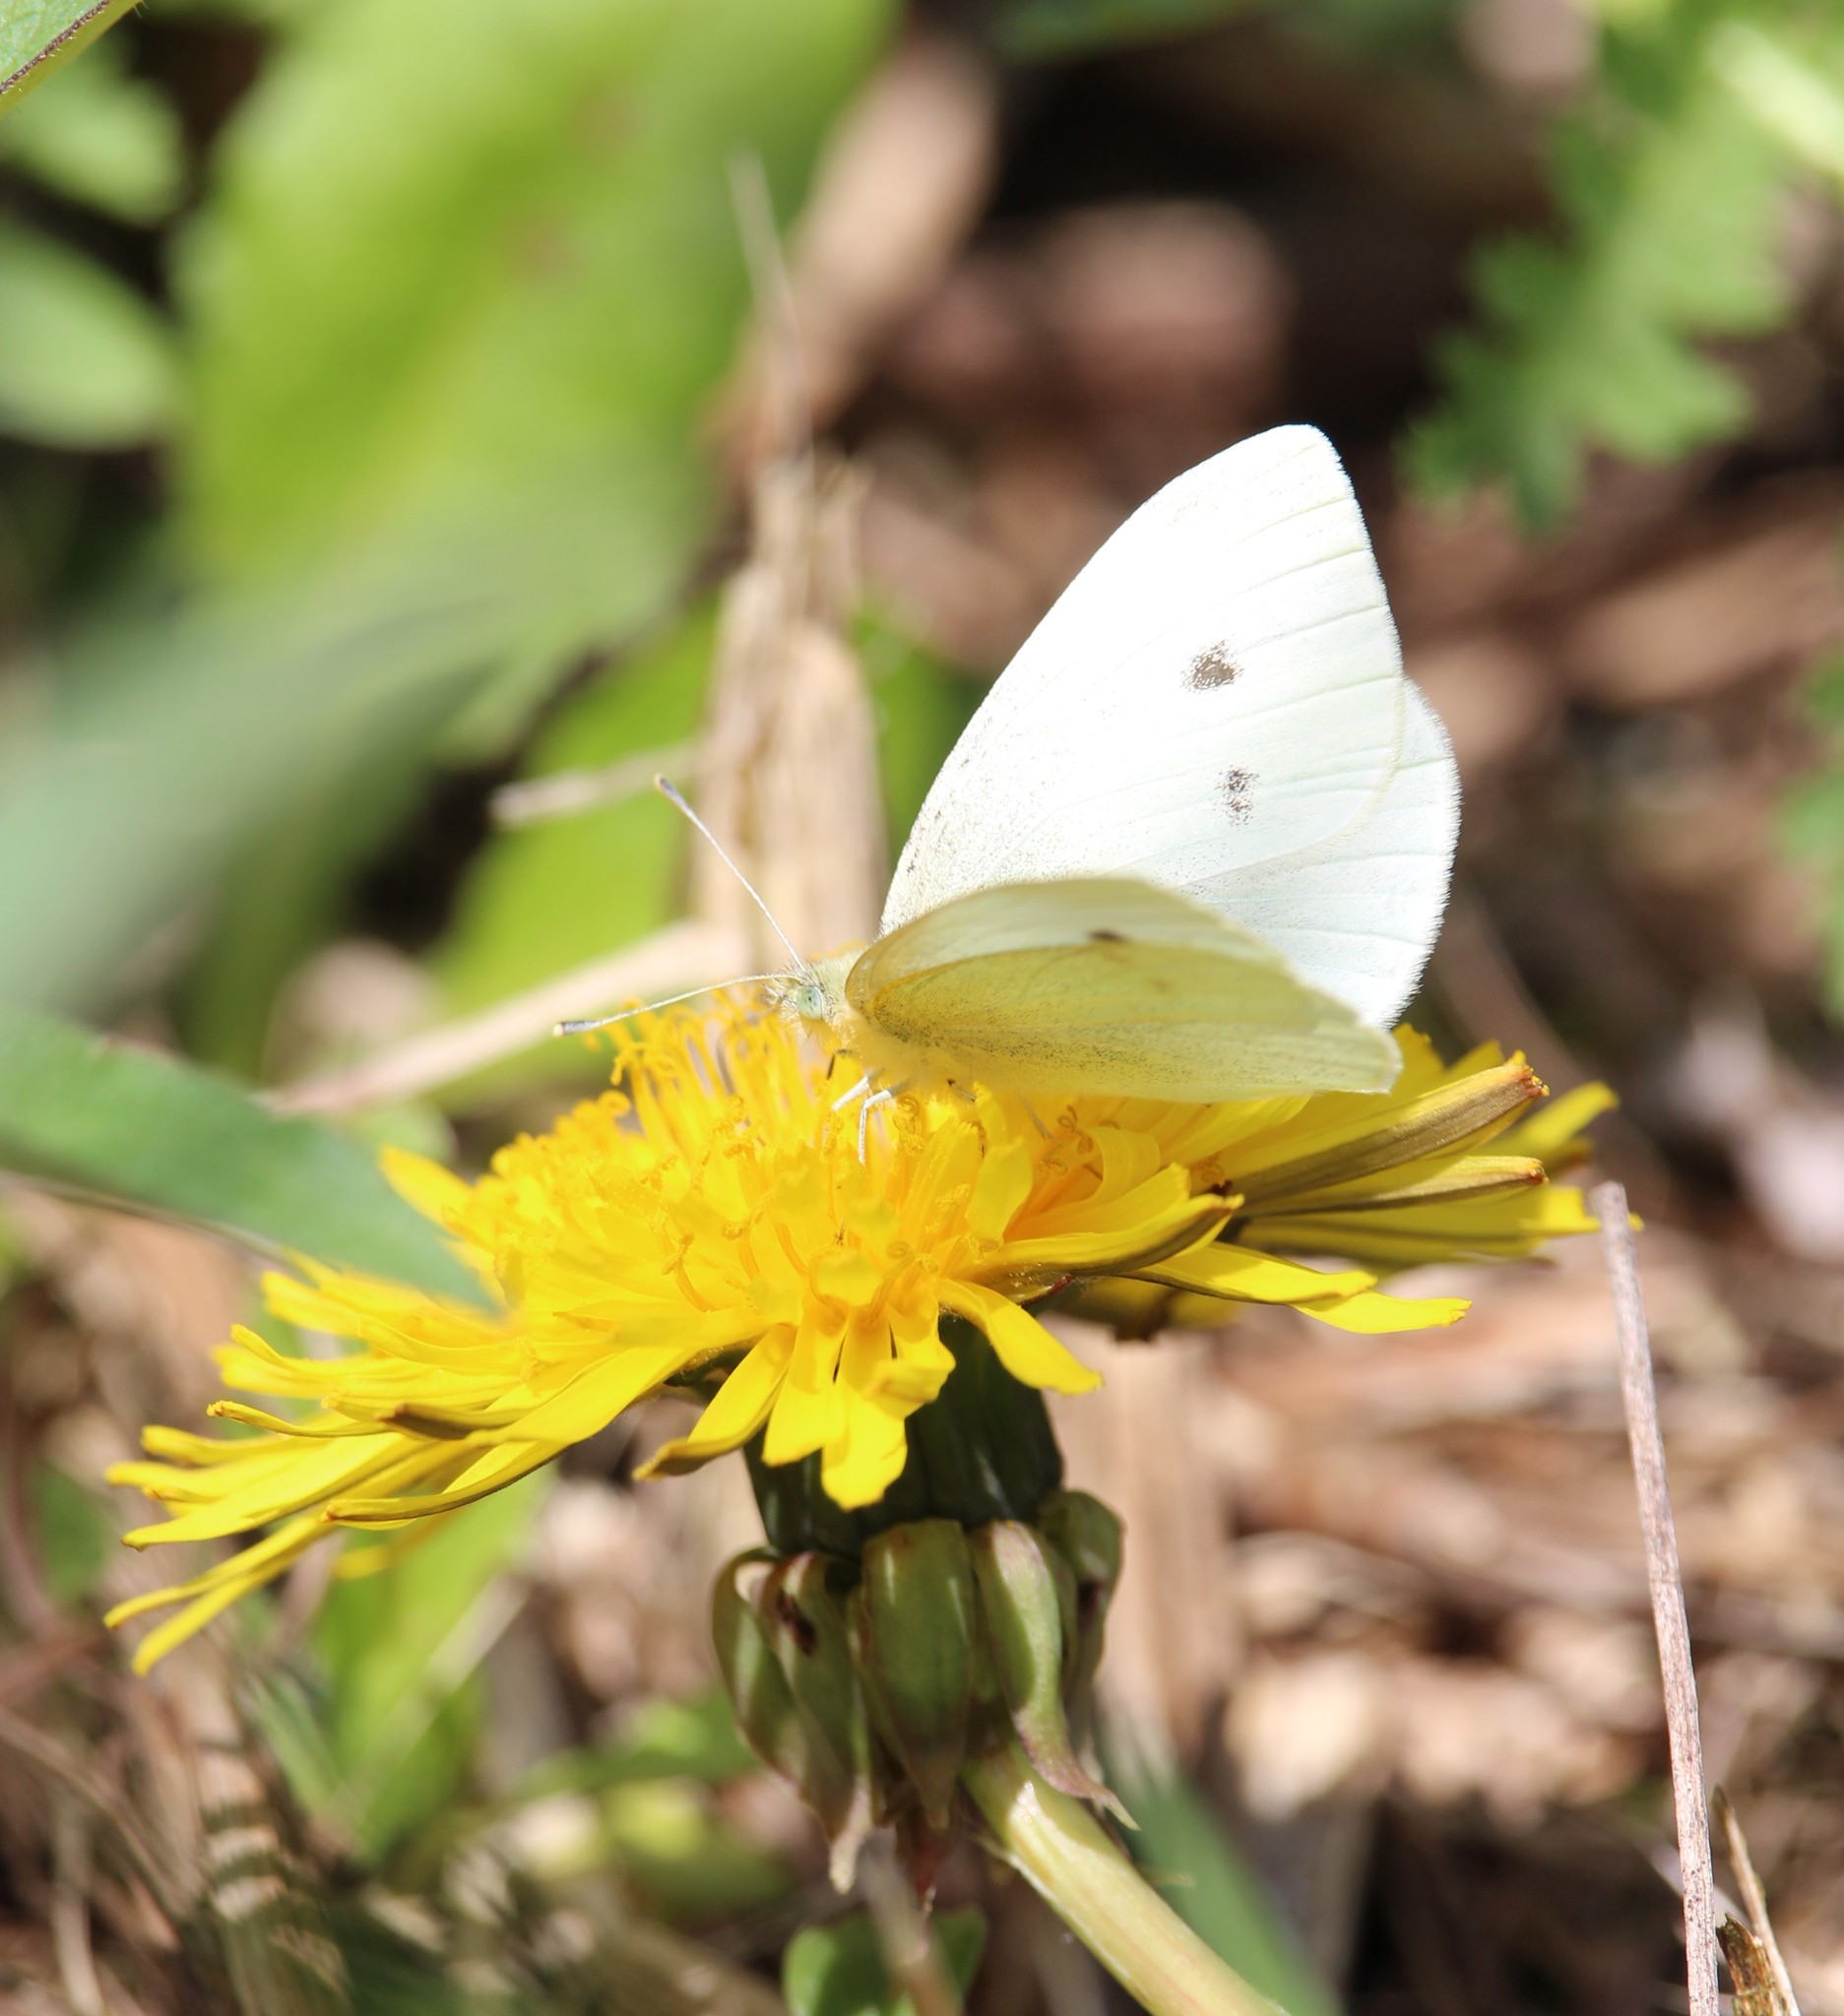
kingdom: Animalia
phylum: Arthropoda
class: Insecta
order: Lepidoptera
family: Pieridae
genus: Pieris
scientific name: Pieris rapae
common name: Small white
